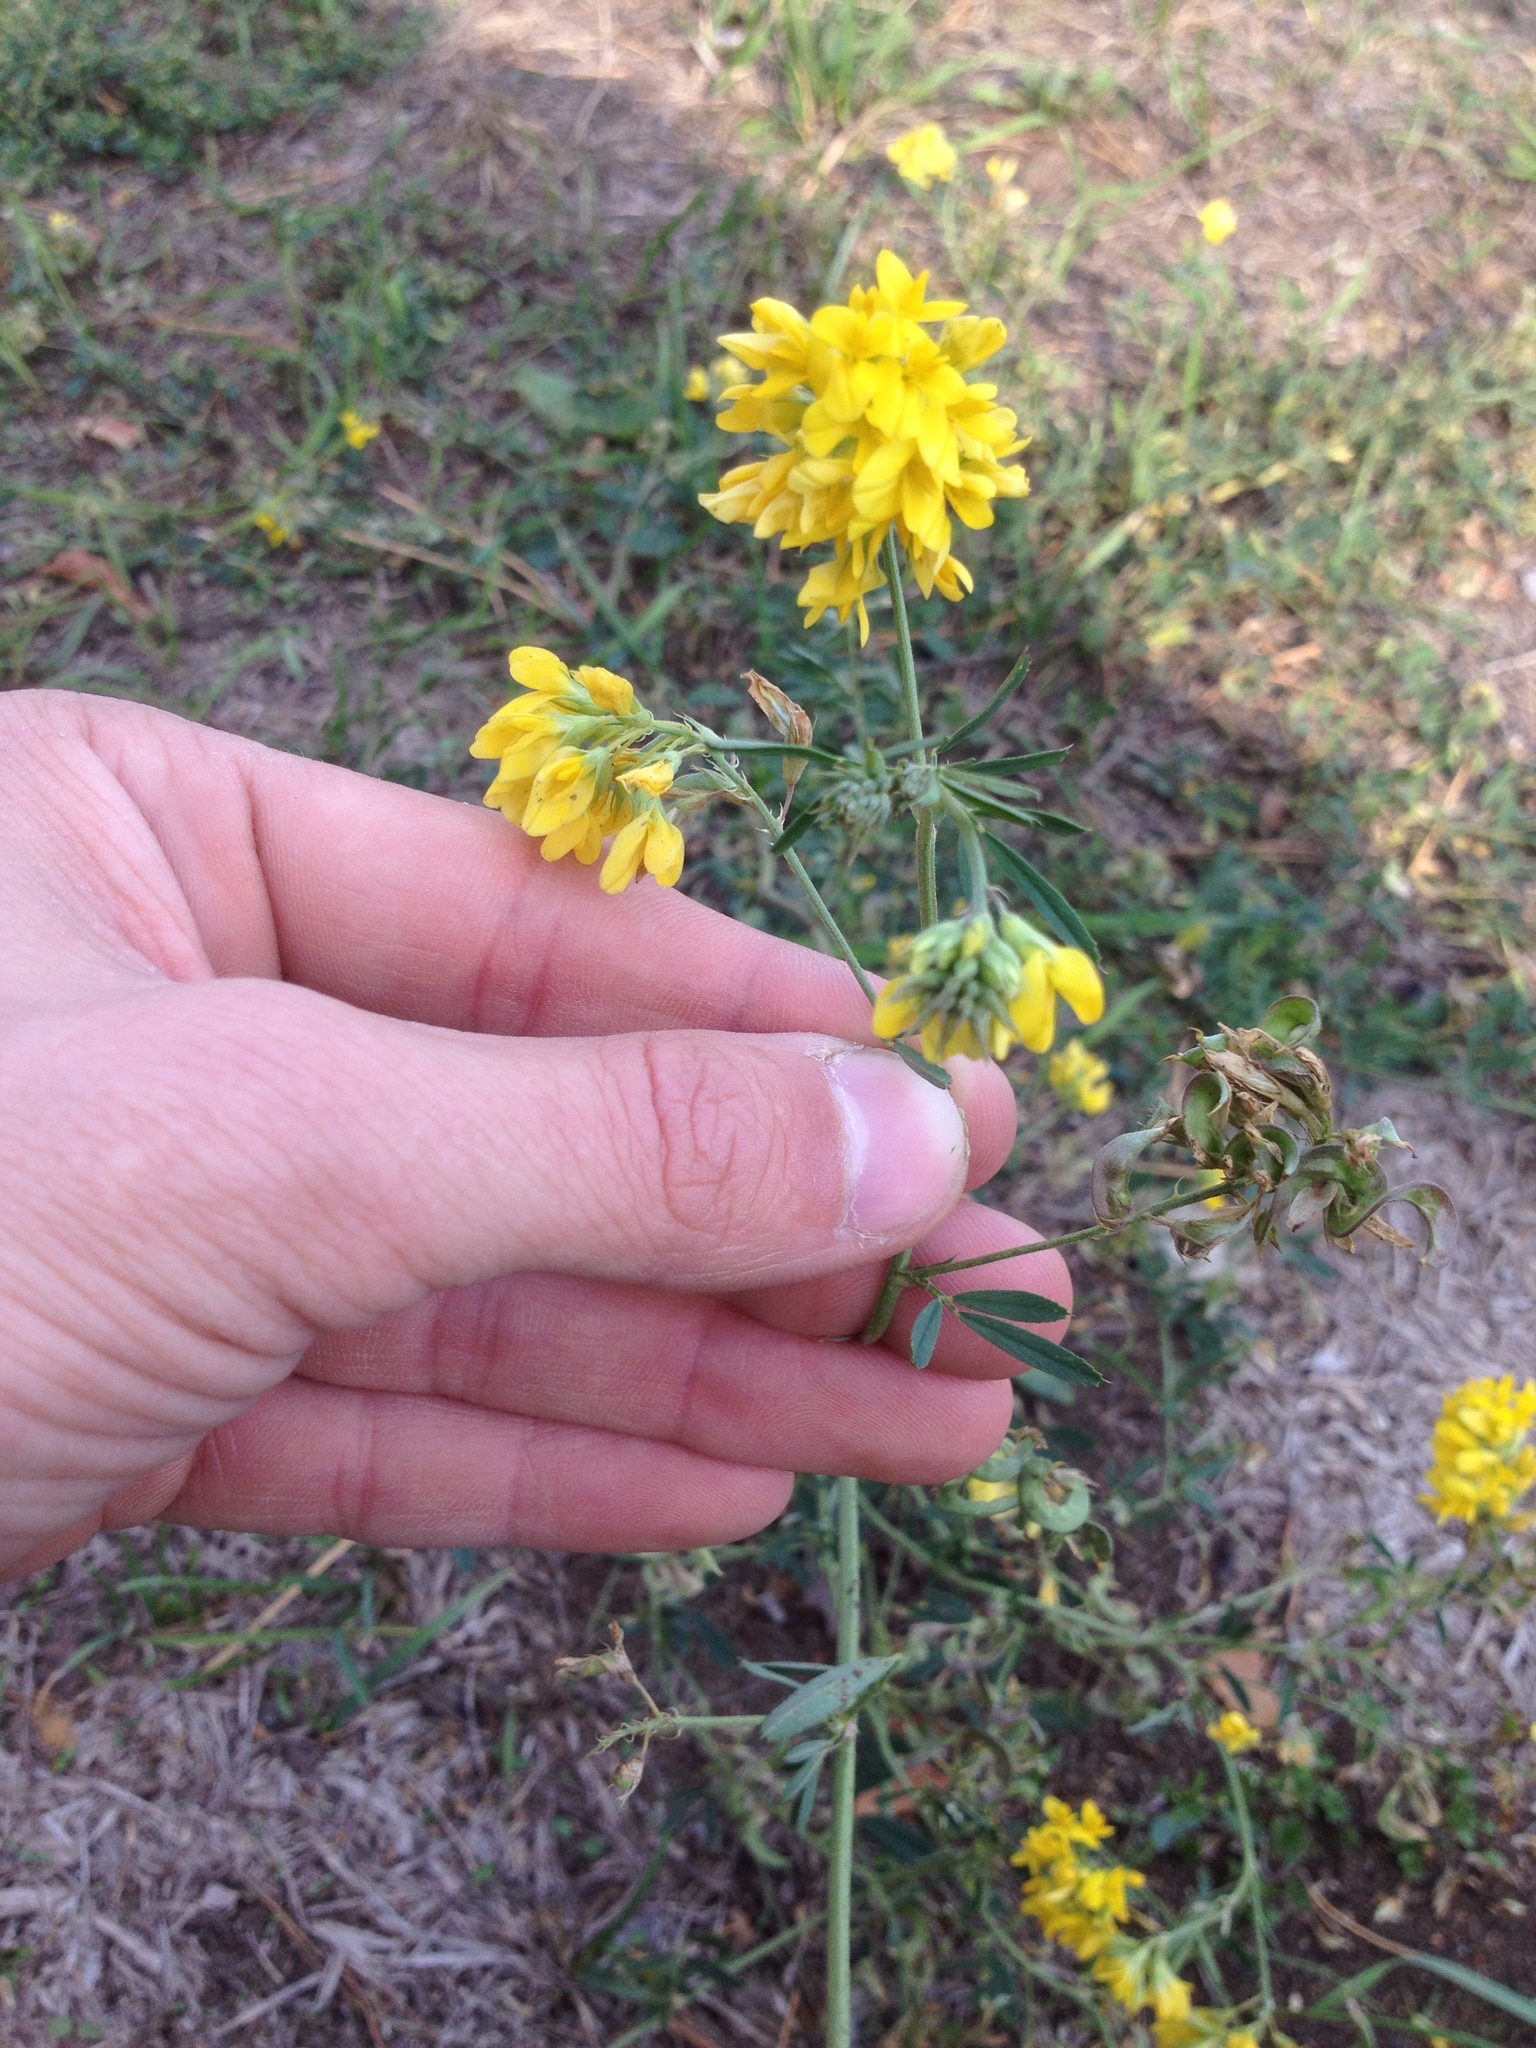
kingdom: Plantae
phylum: Tracheophyta
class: Magnoliopsida
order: Fabales
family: Fabaceae
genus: Medicago
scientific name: Medicago falcata
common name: Sickle medick
